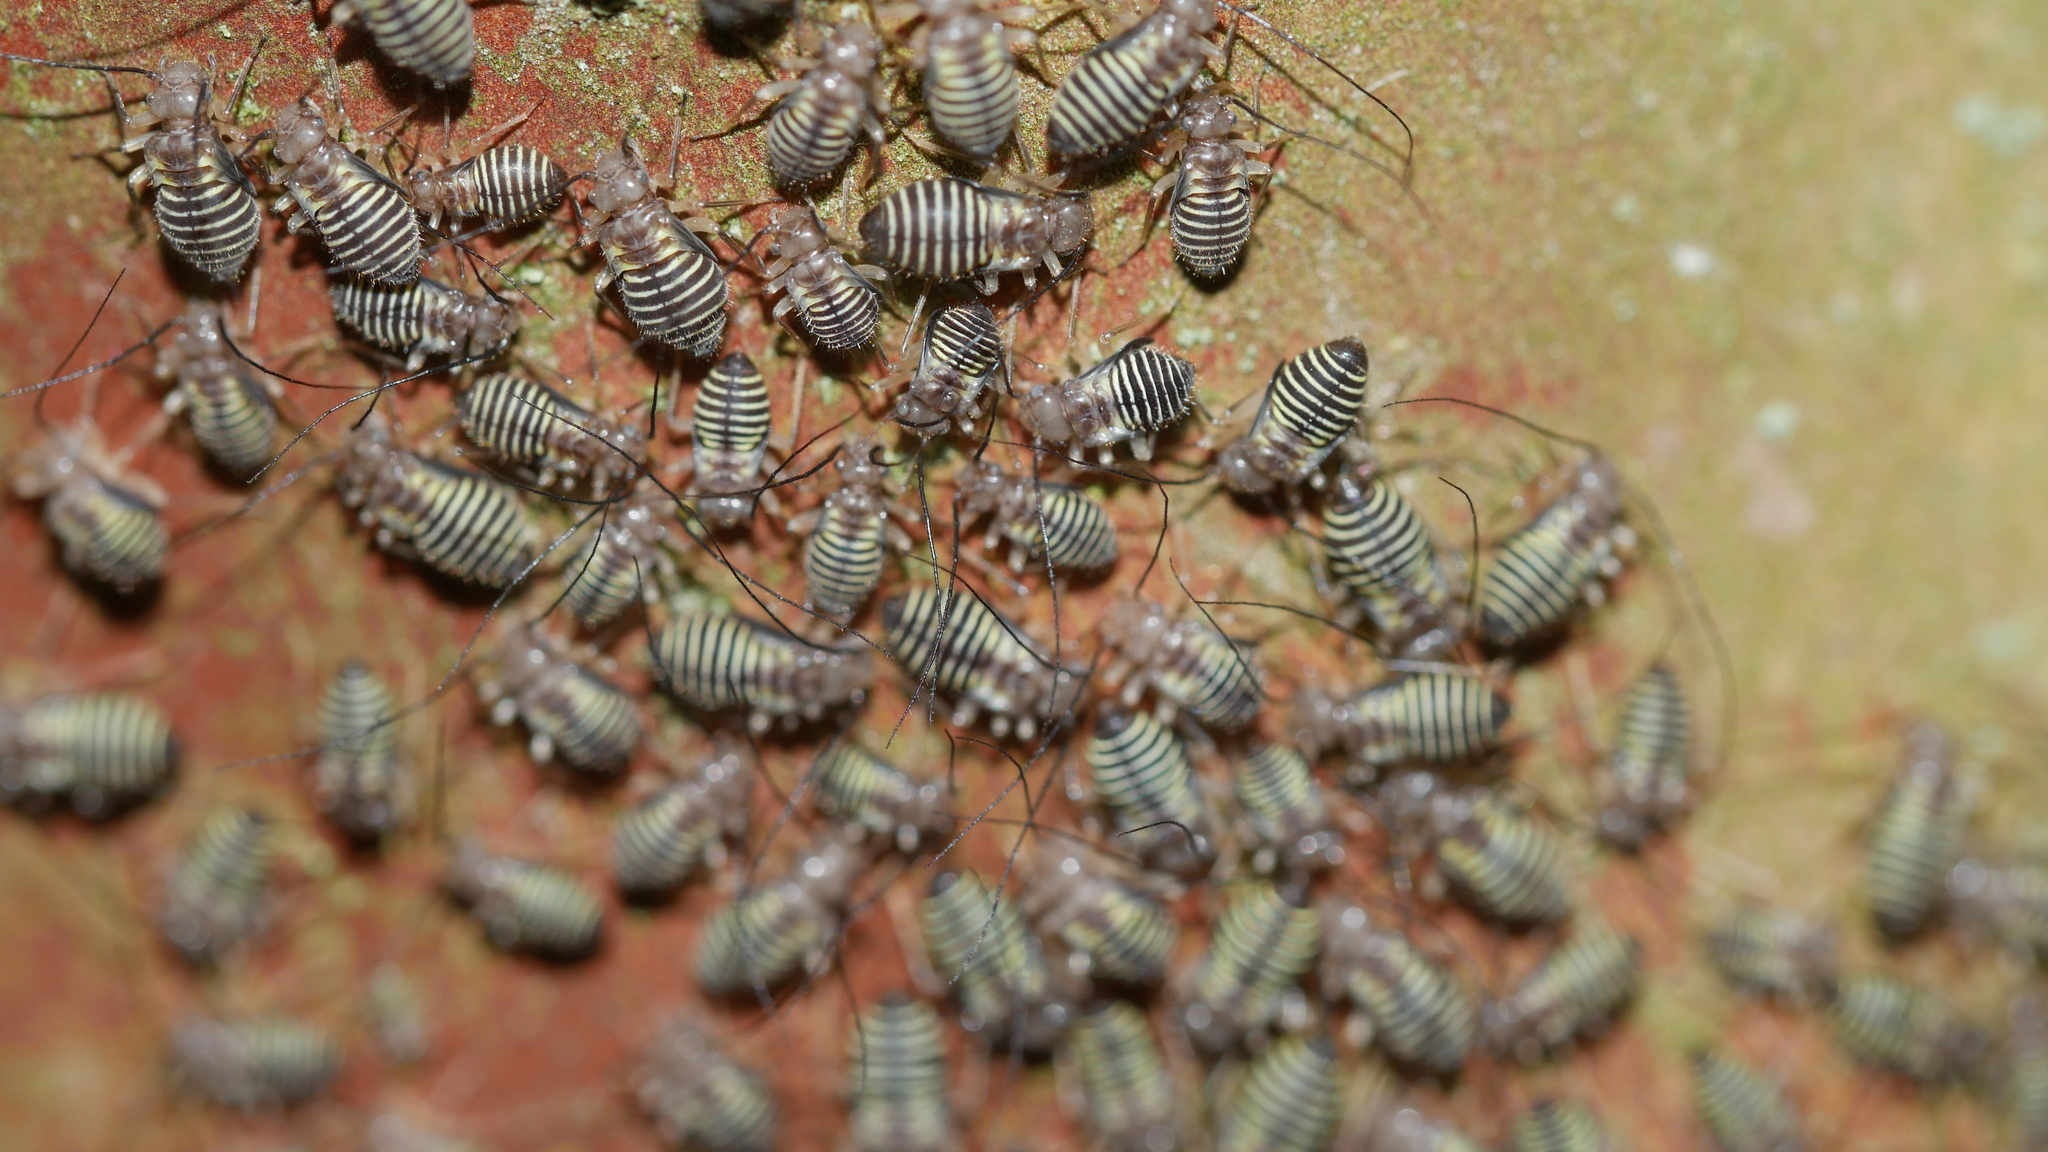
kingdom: Animalia
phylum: Arthropoda
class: Insecta
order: Psocodea
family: Psocidae
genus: Cerastipsocus
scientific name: Cerastipsocus venosus
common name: Tree cattle
